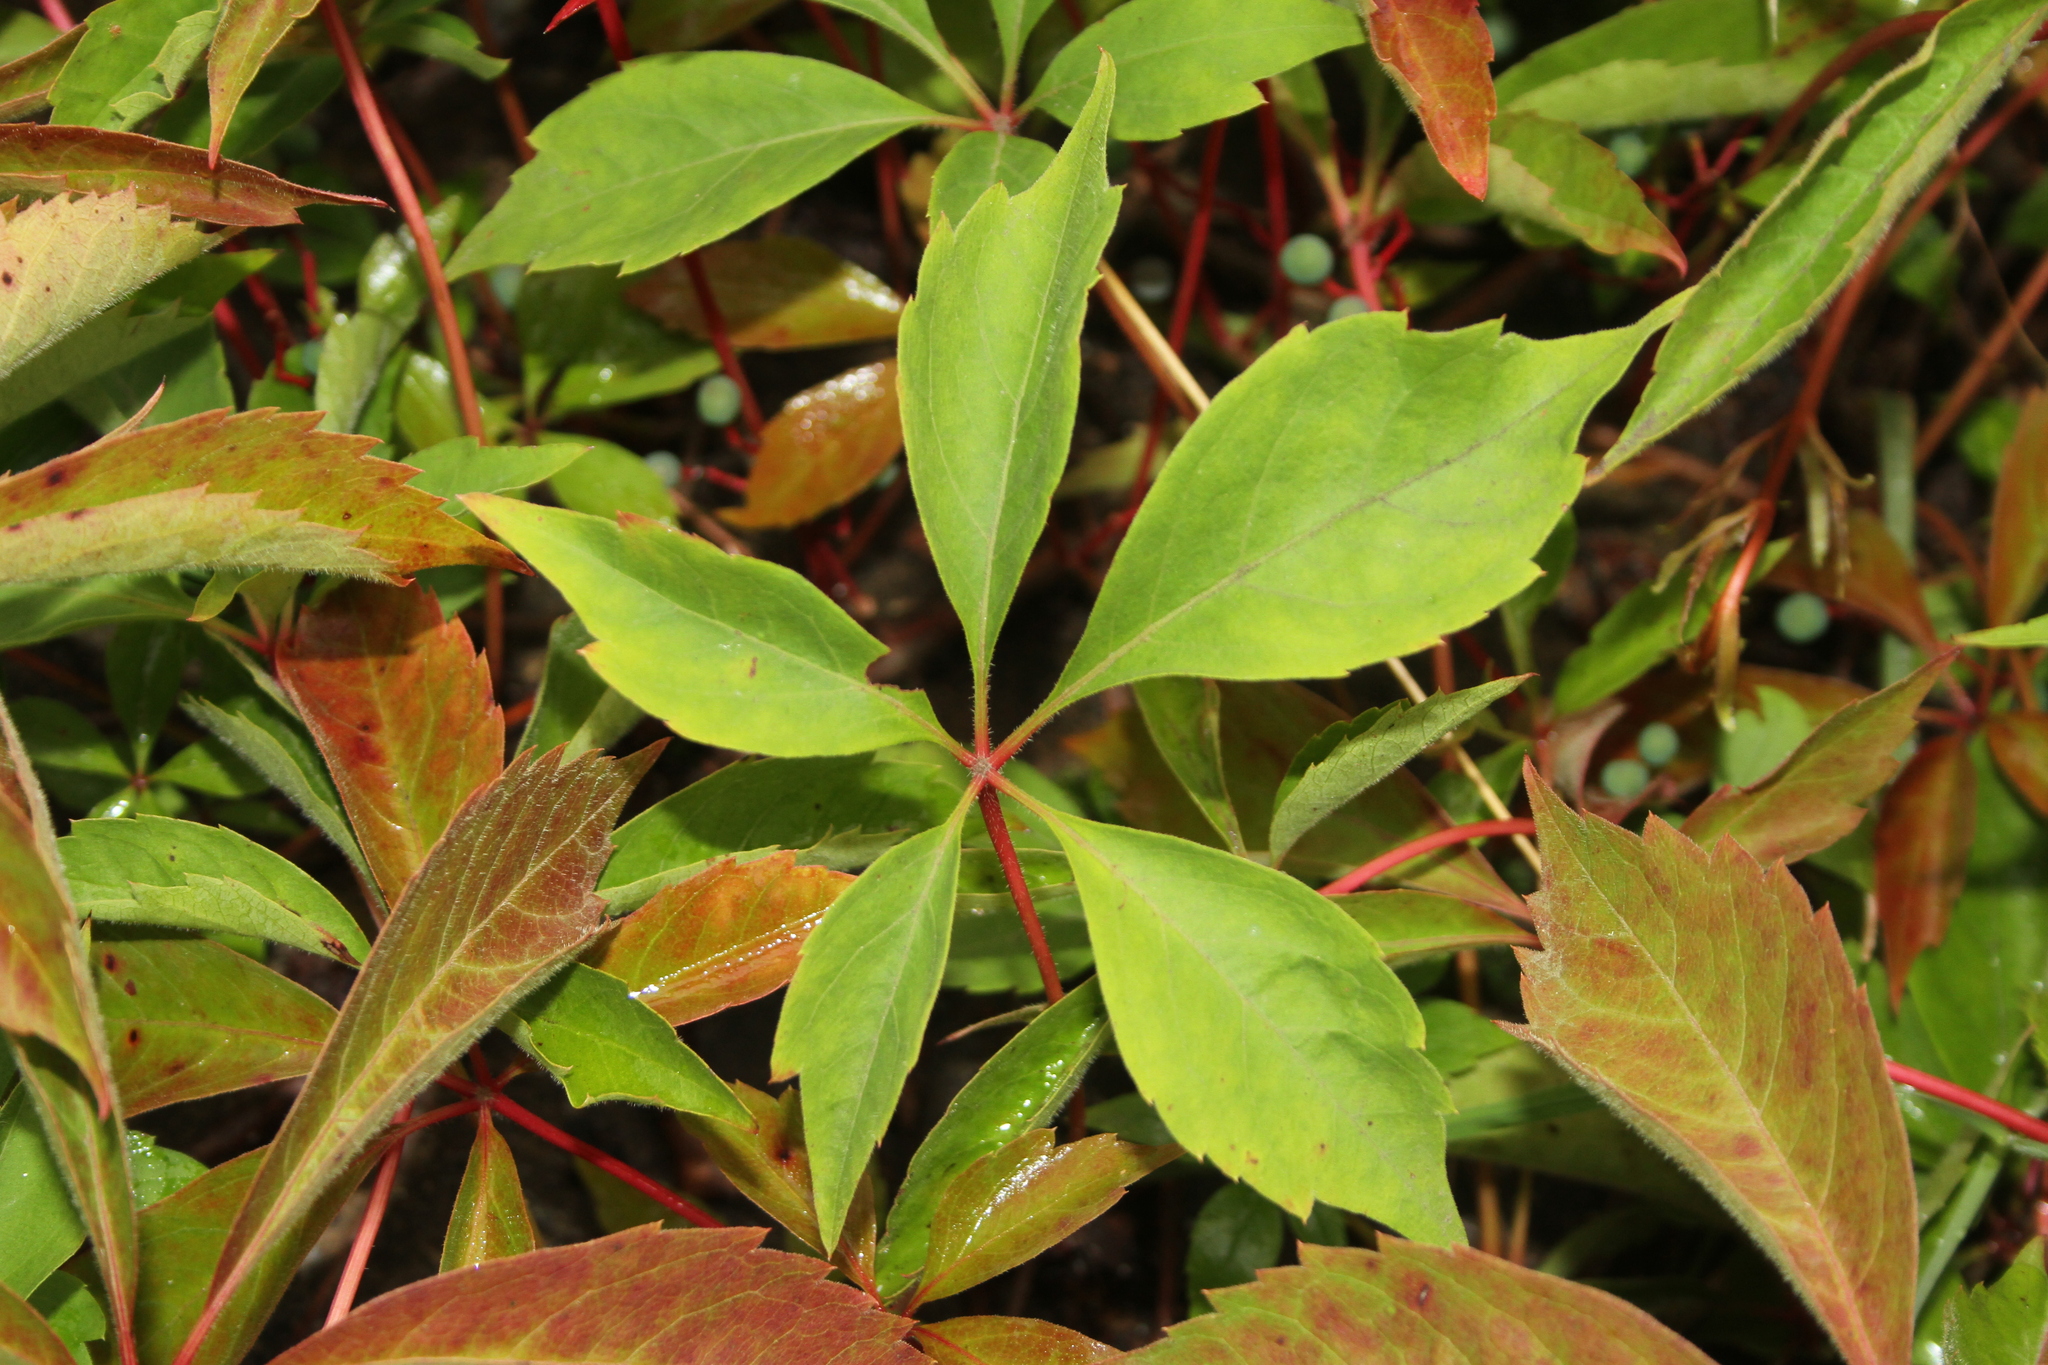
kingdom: Plantae
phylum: Tracheophyta
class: Magnoliopsida
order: Vitales
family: Vitaceae
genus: Parthenocissus
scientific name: Parthenocissus quinquefolia
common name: Virginia-creeper
